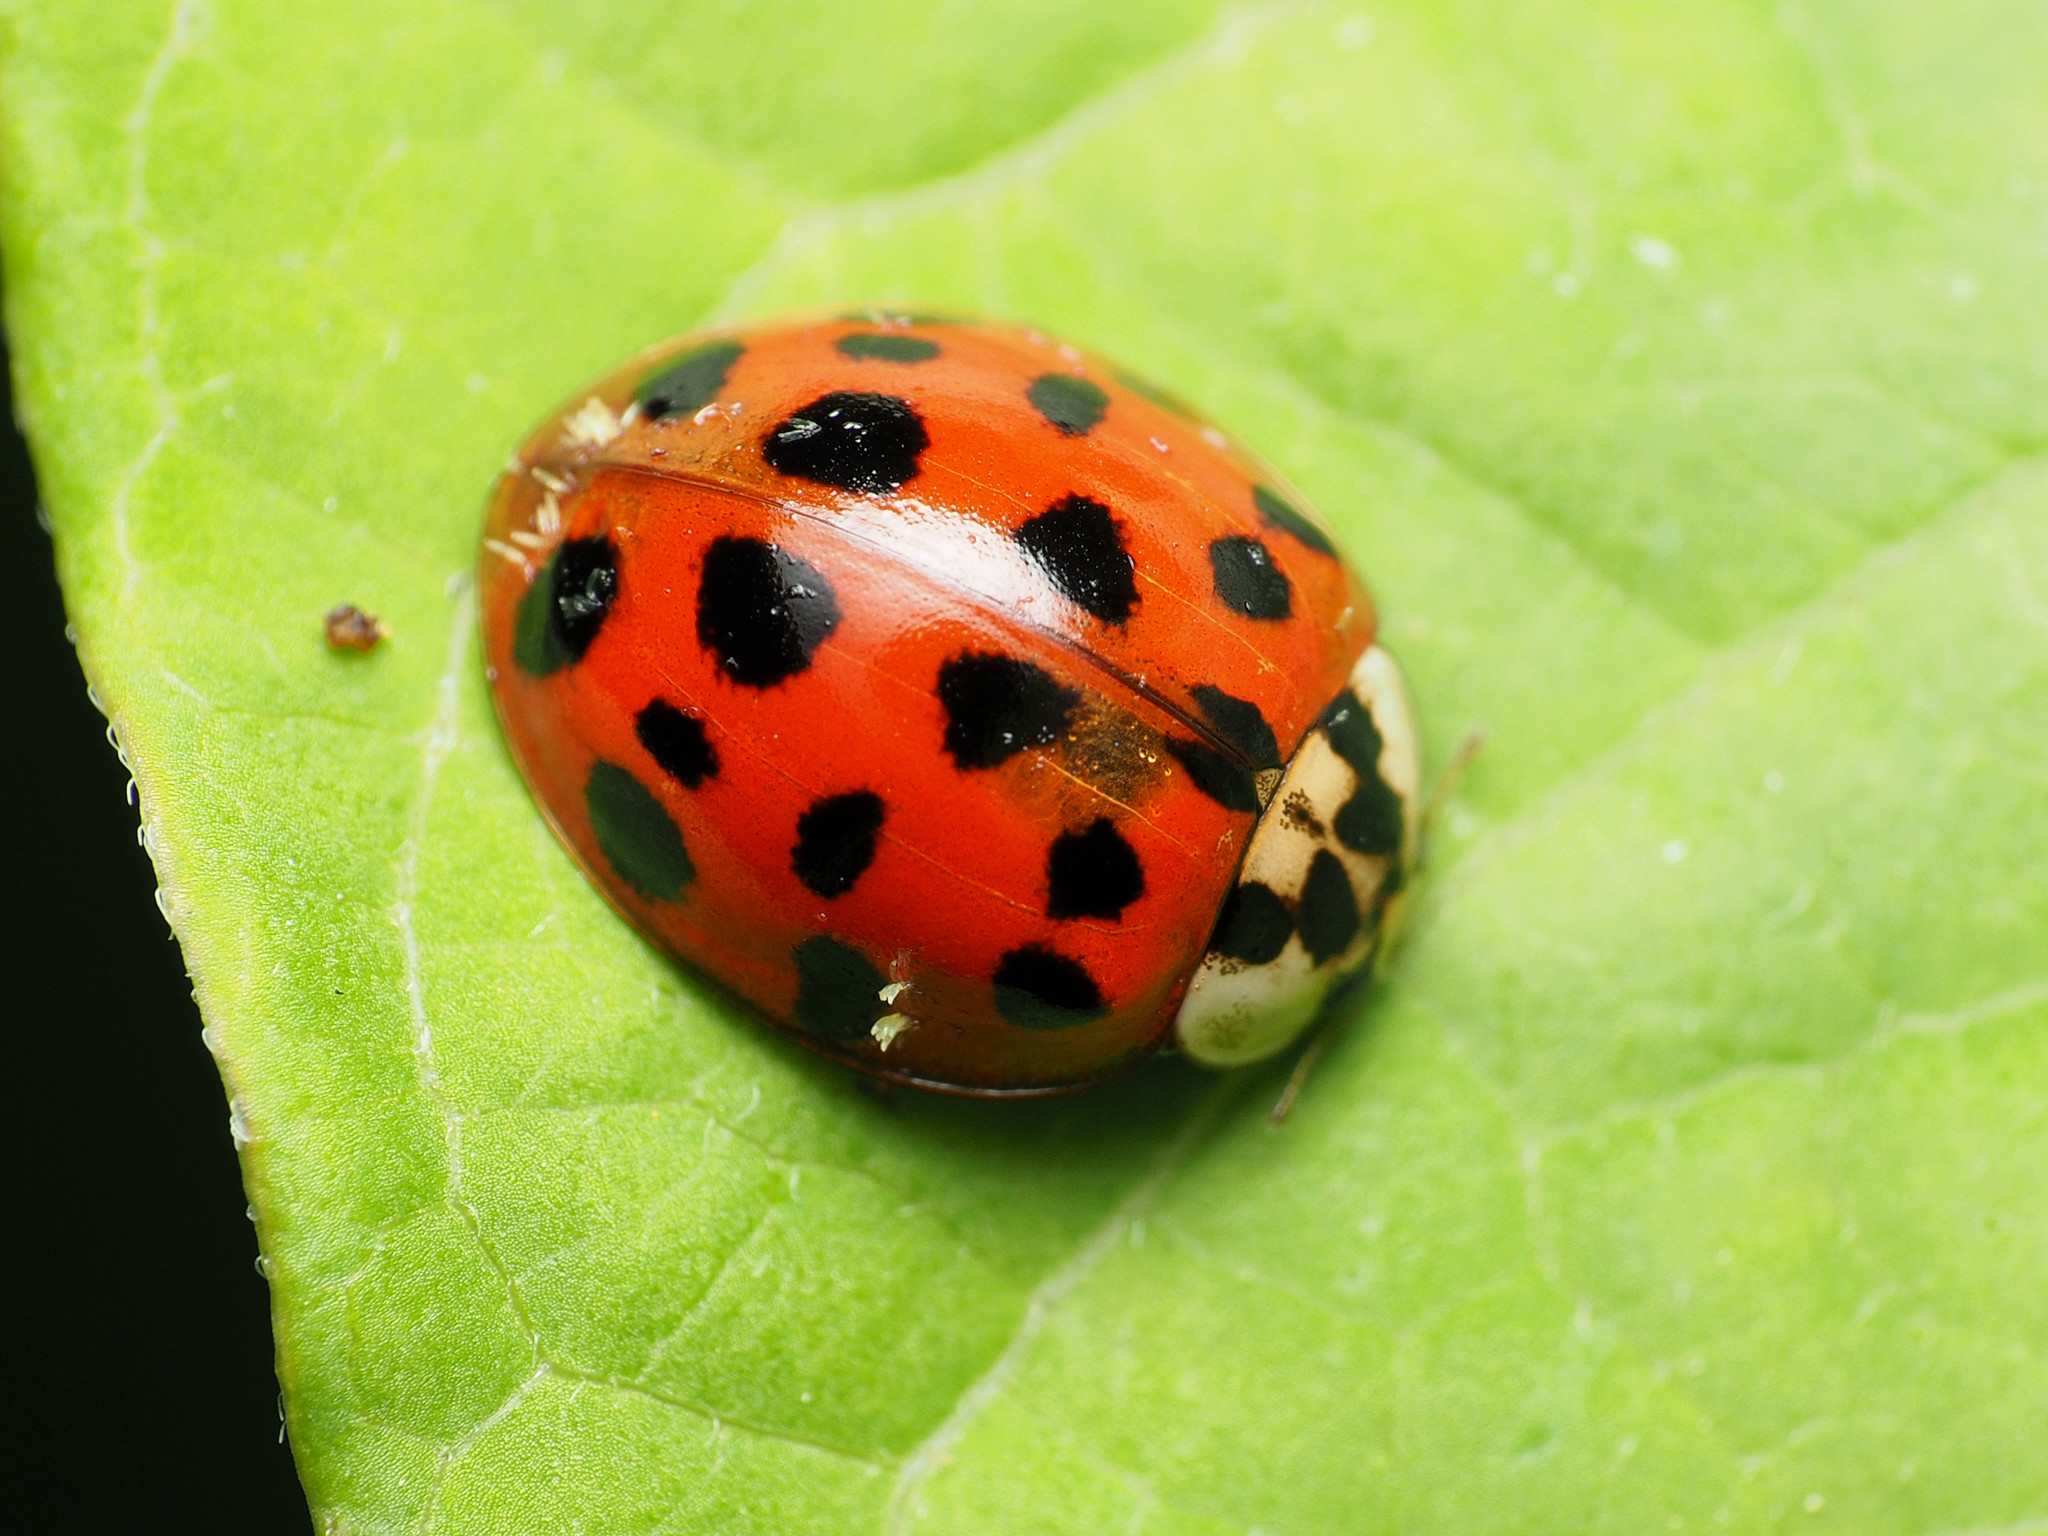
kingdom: Fungi
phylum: Ascomycota
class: Laboulbeniomycetes
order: Laboulbeniales
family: Laboulbeniaceae
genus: Hesperomyces
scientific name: Hesperomyces harmoniae
